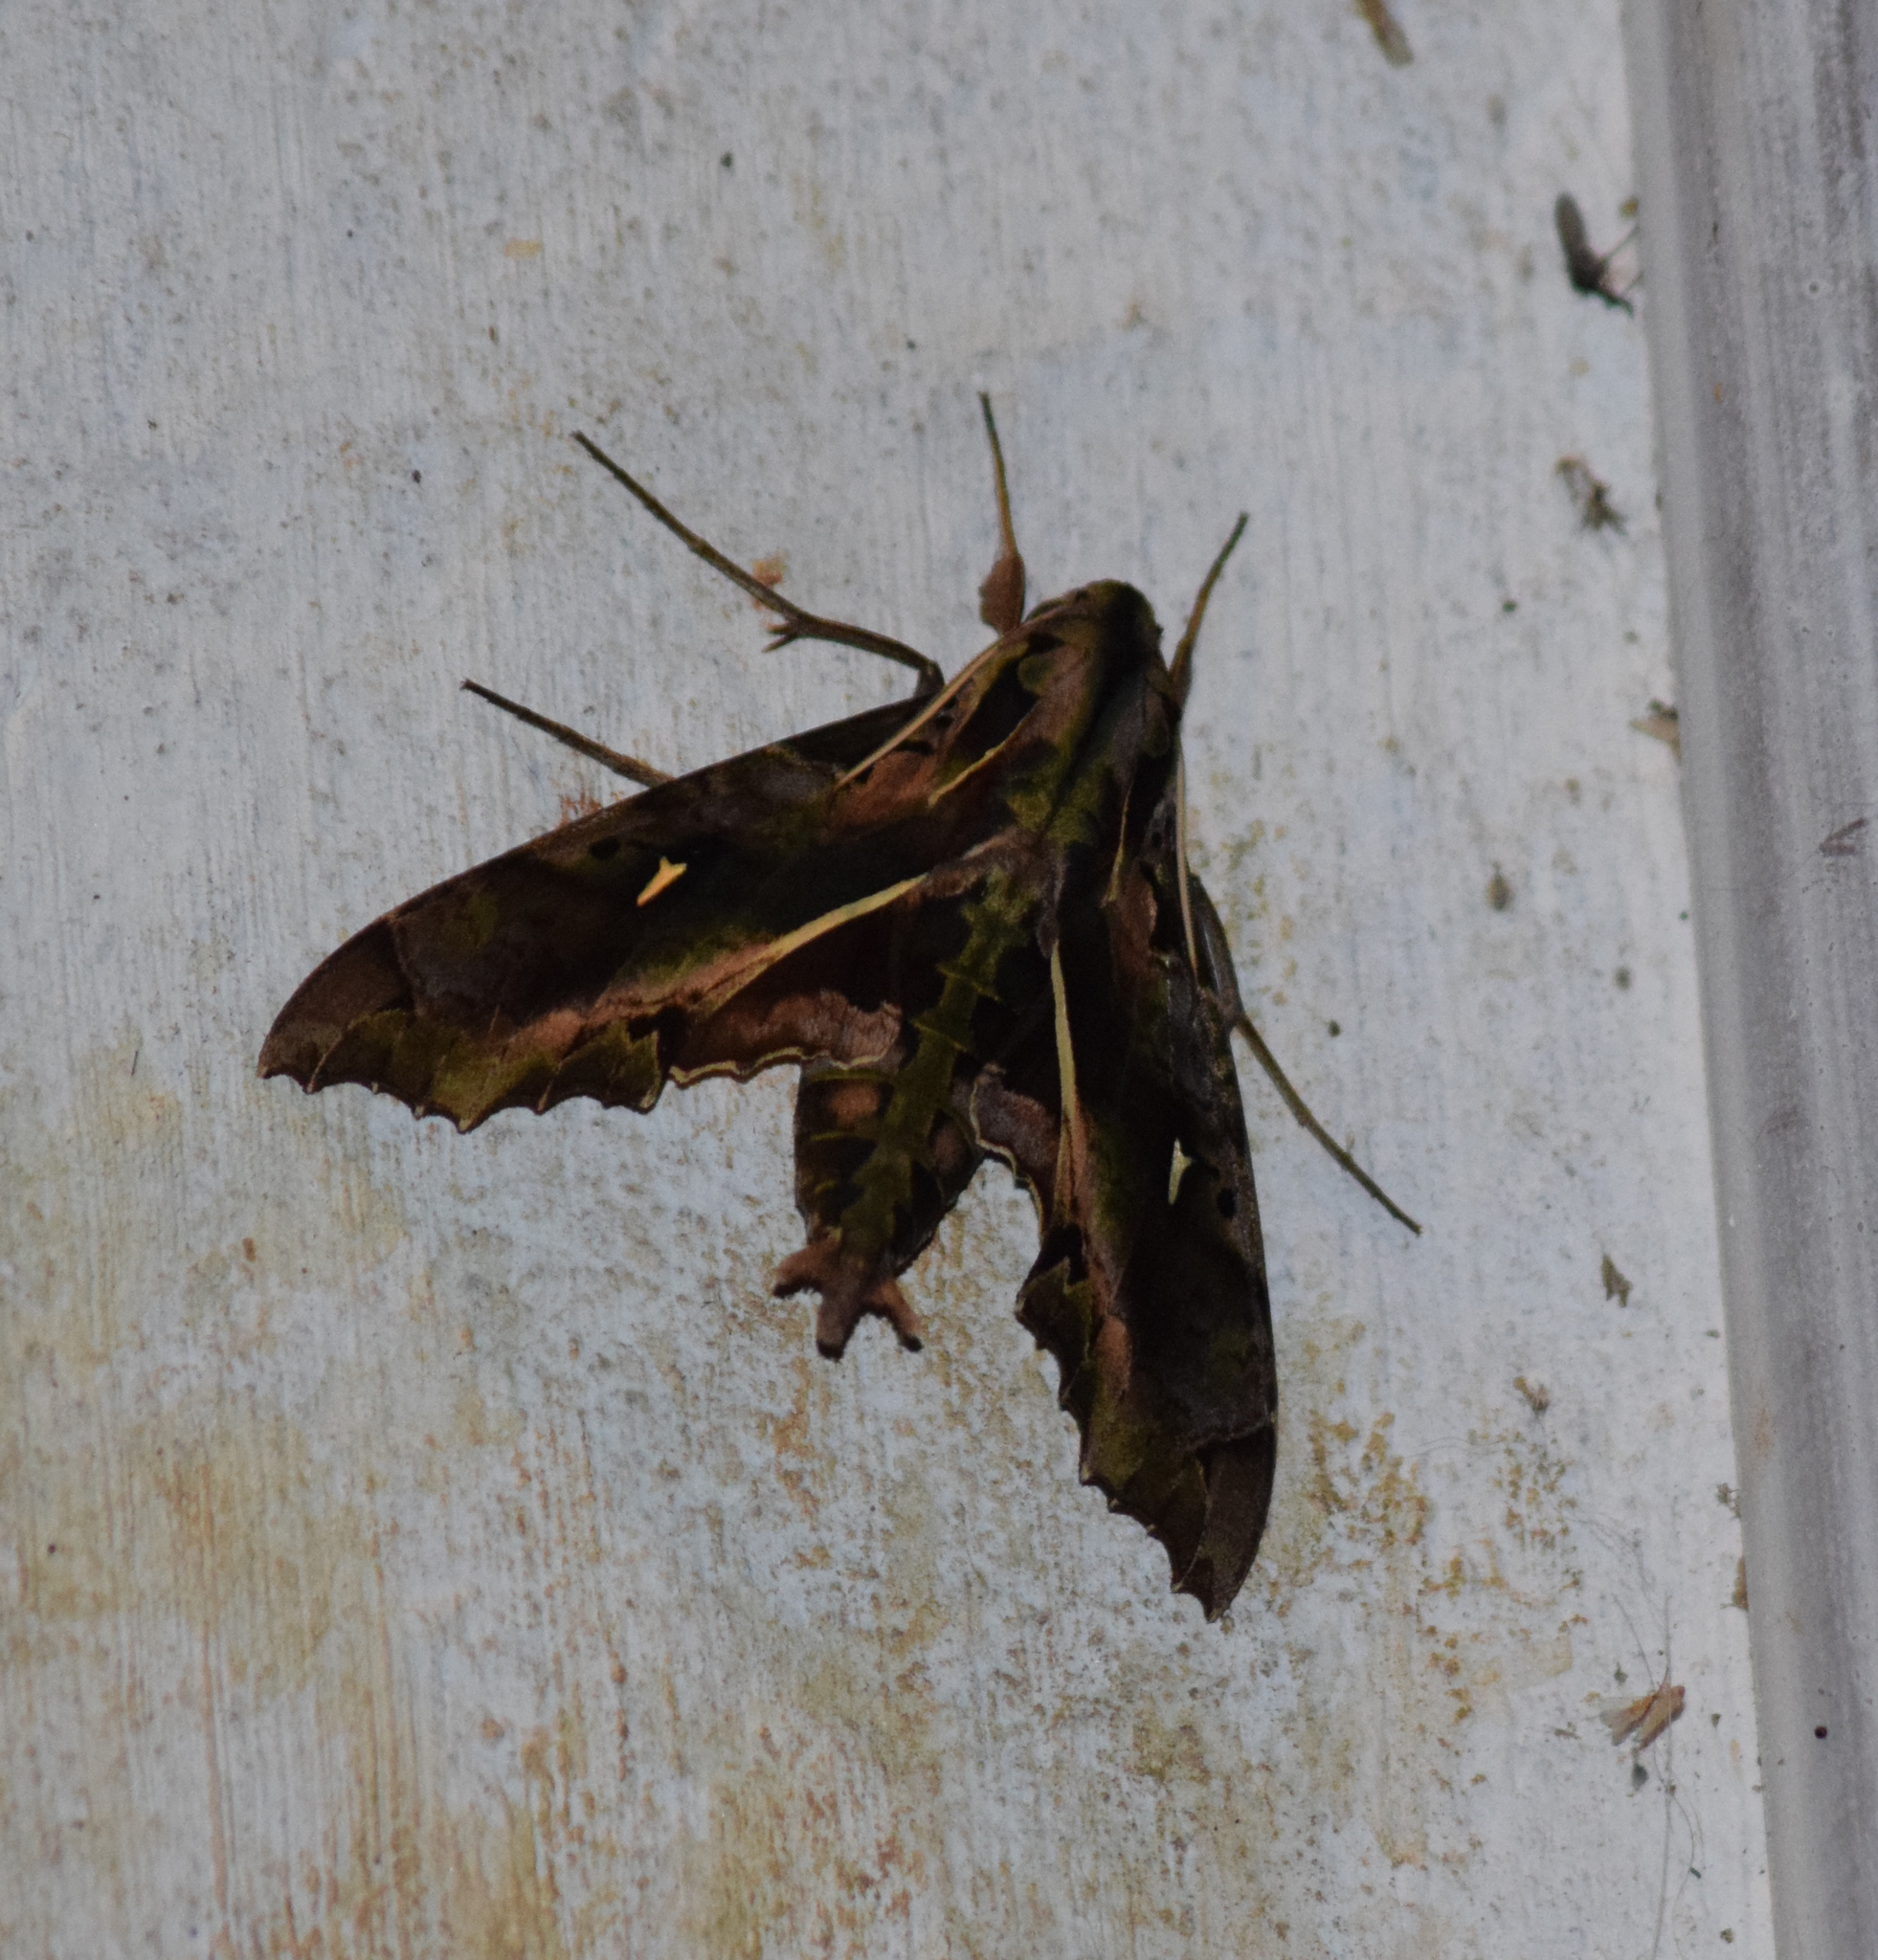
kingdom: Animalia
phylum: Arthropoda
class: Insecta
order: Lepidoptera
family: Sphingidae
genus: Hemeroplanes
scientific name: Hemeroplanes ornatus
